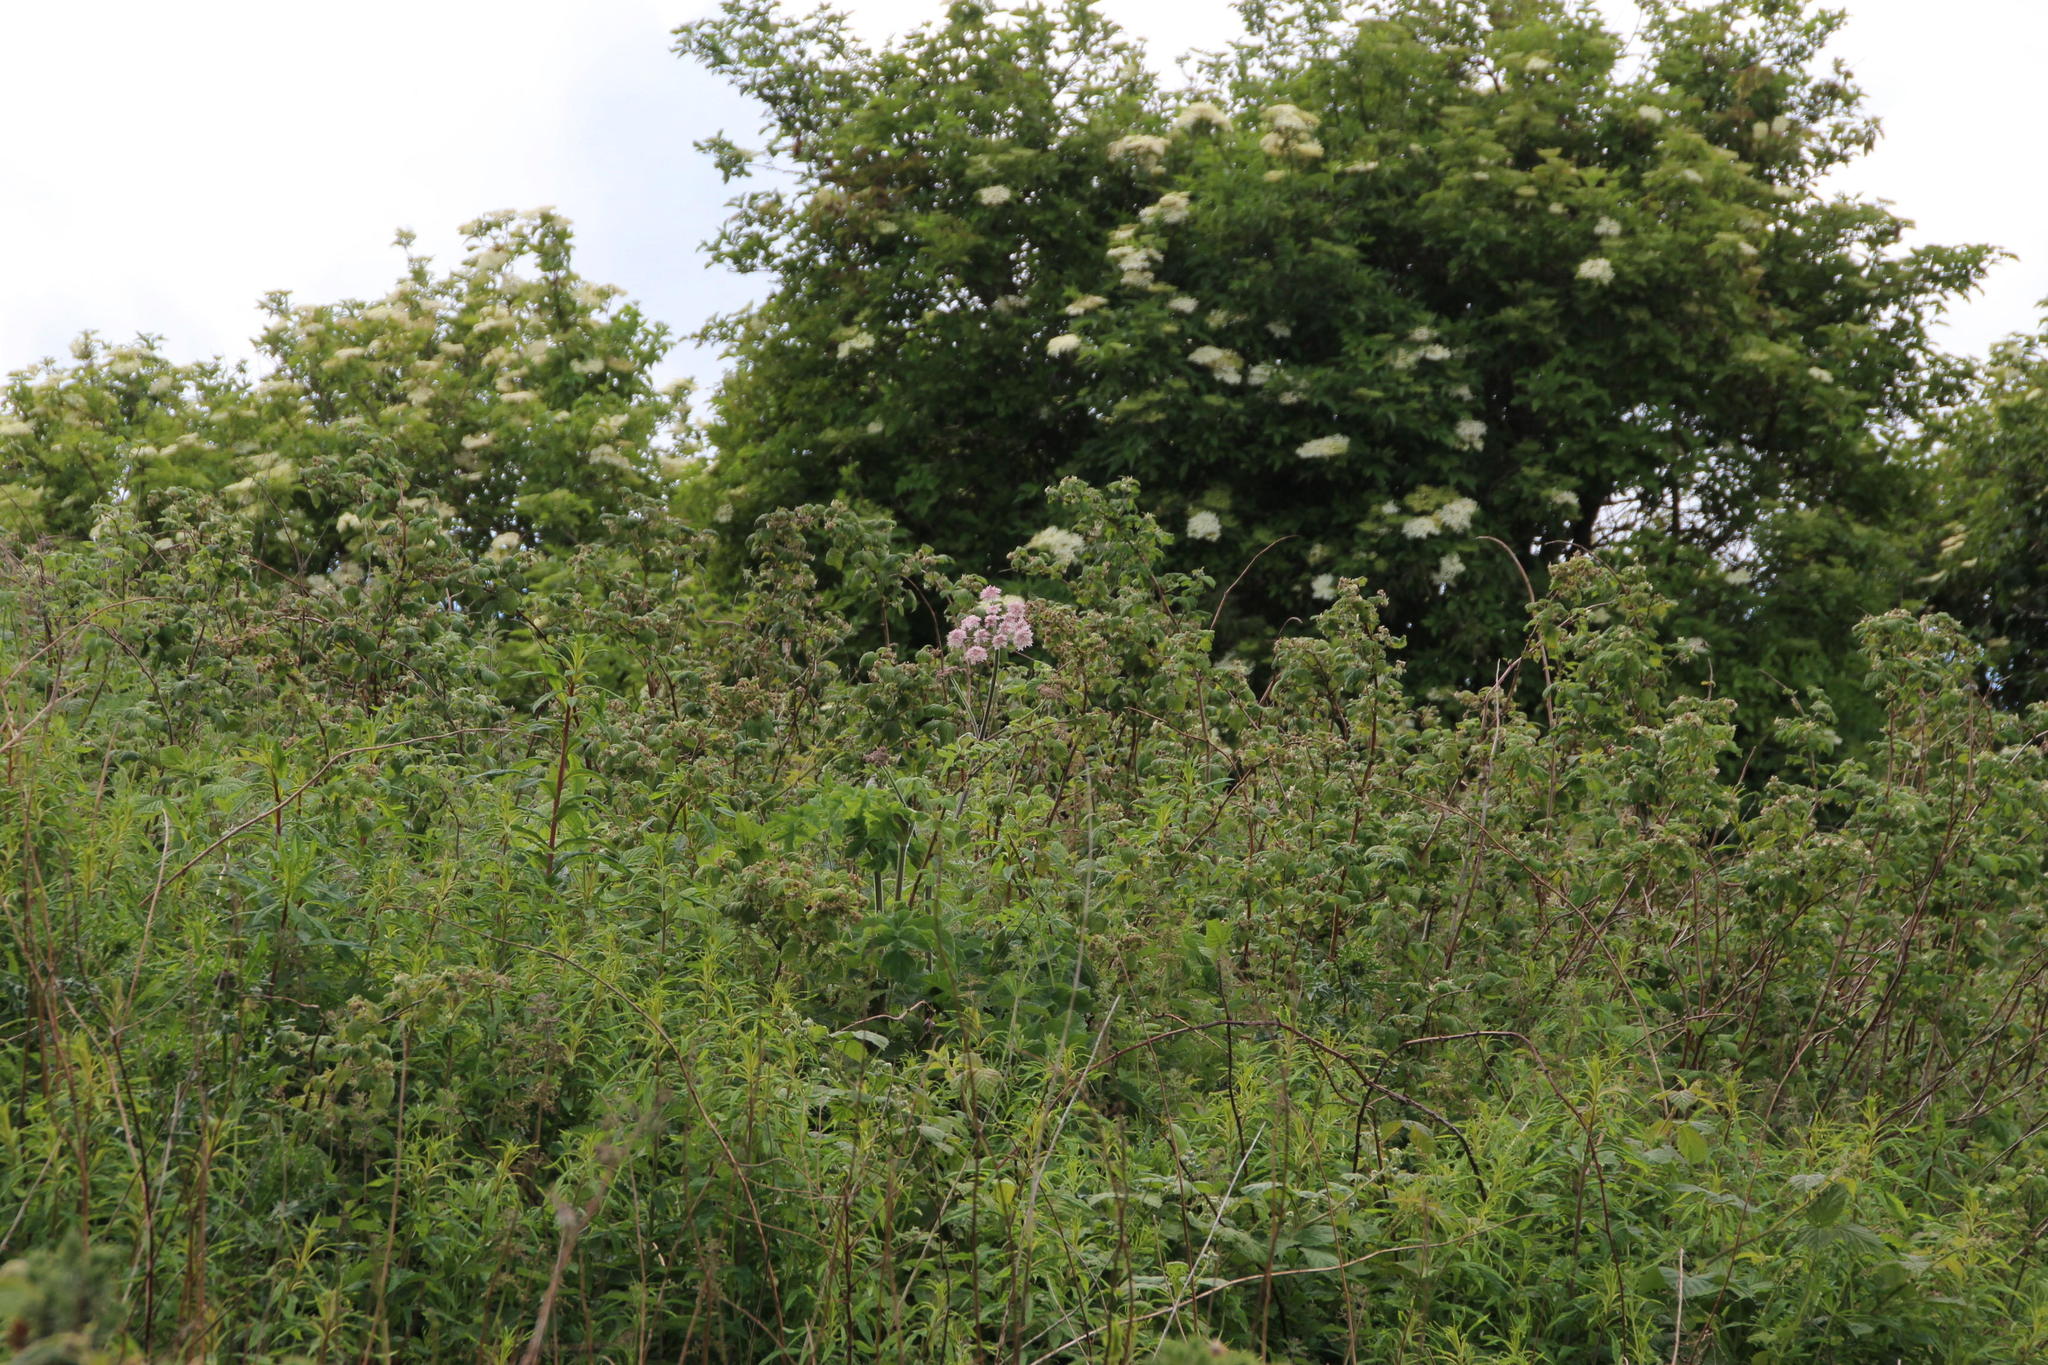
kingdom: Plantae
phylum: Tracheophyta
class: Magnoliopsida
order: Rosales
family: Rosaceae
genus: Rubus
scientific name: Rubus idaeus
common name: Raspberry
